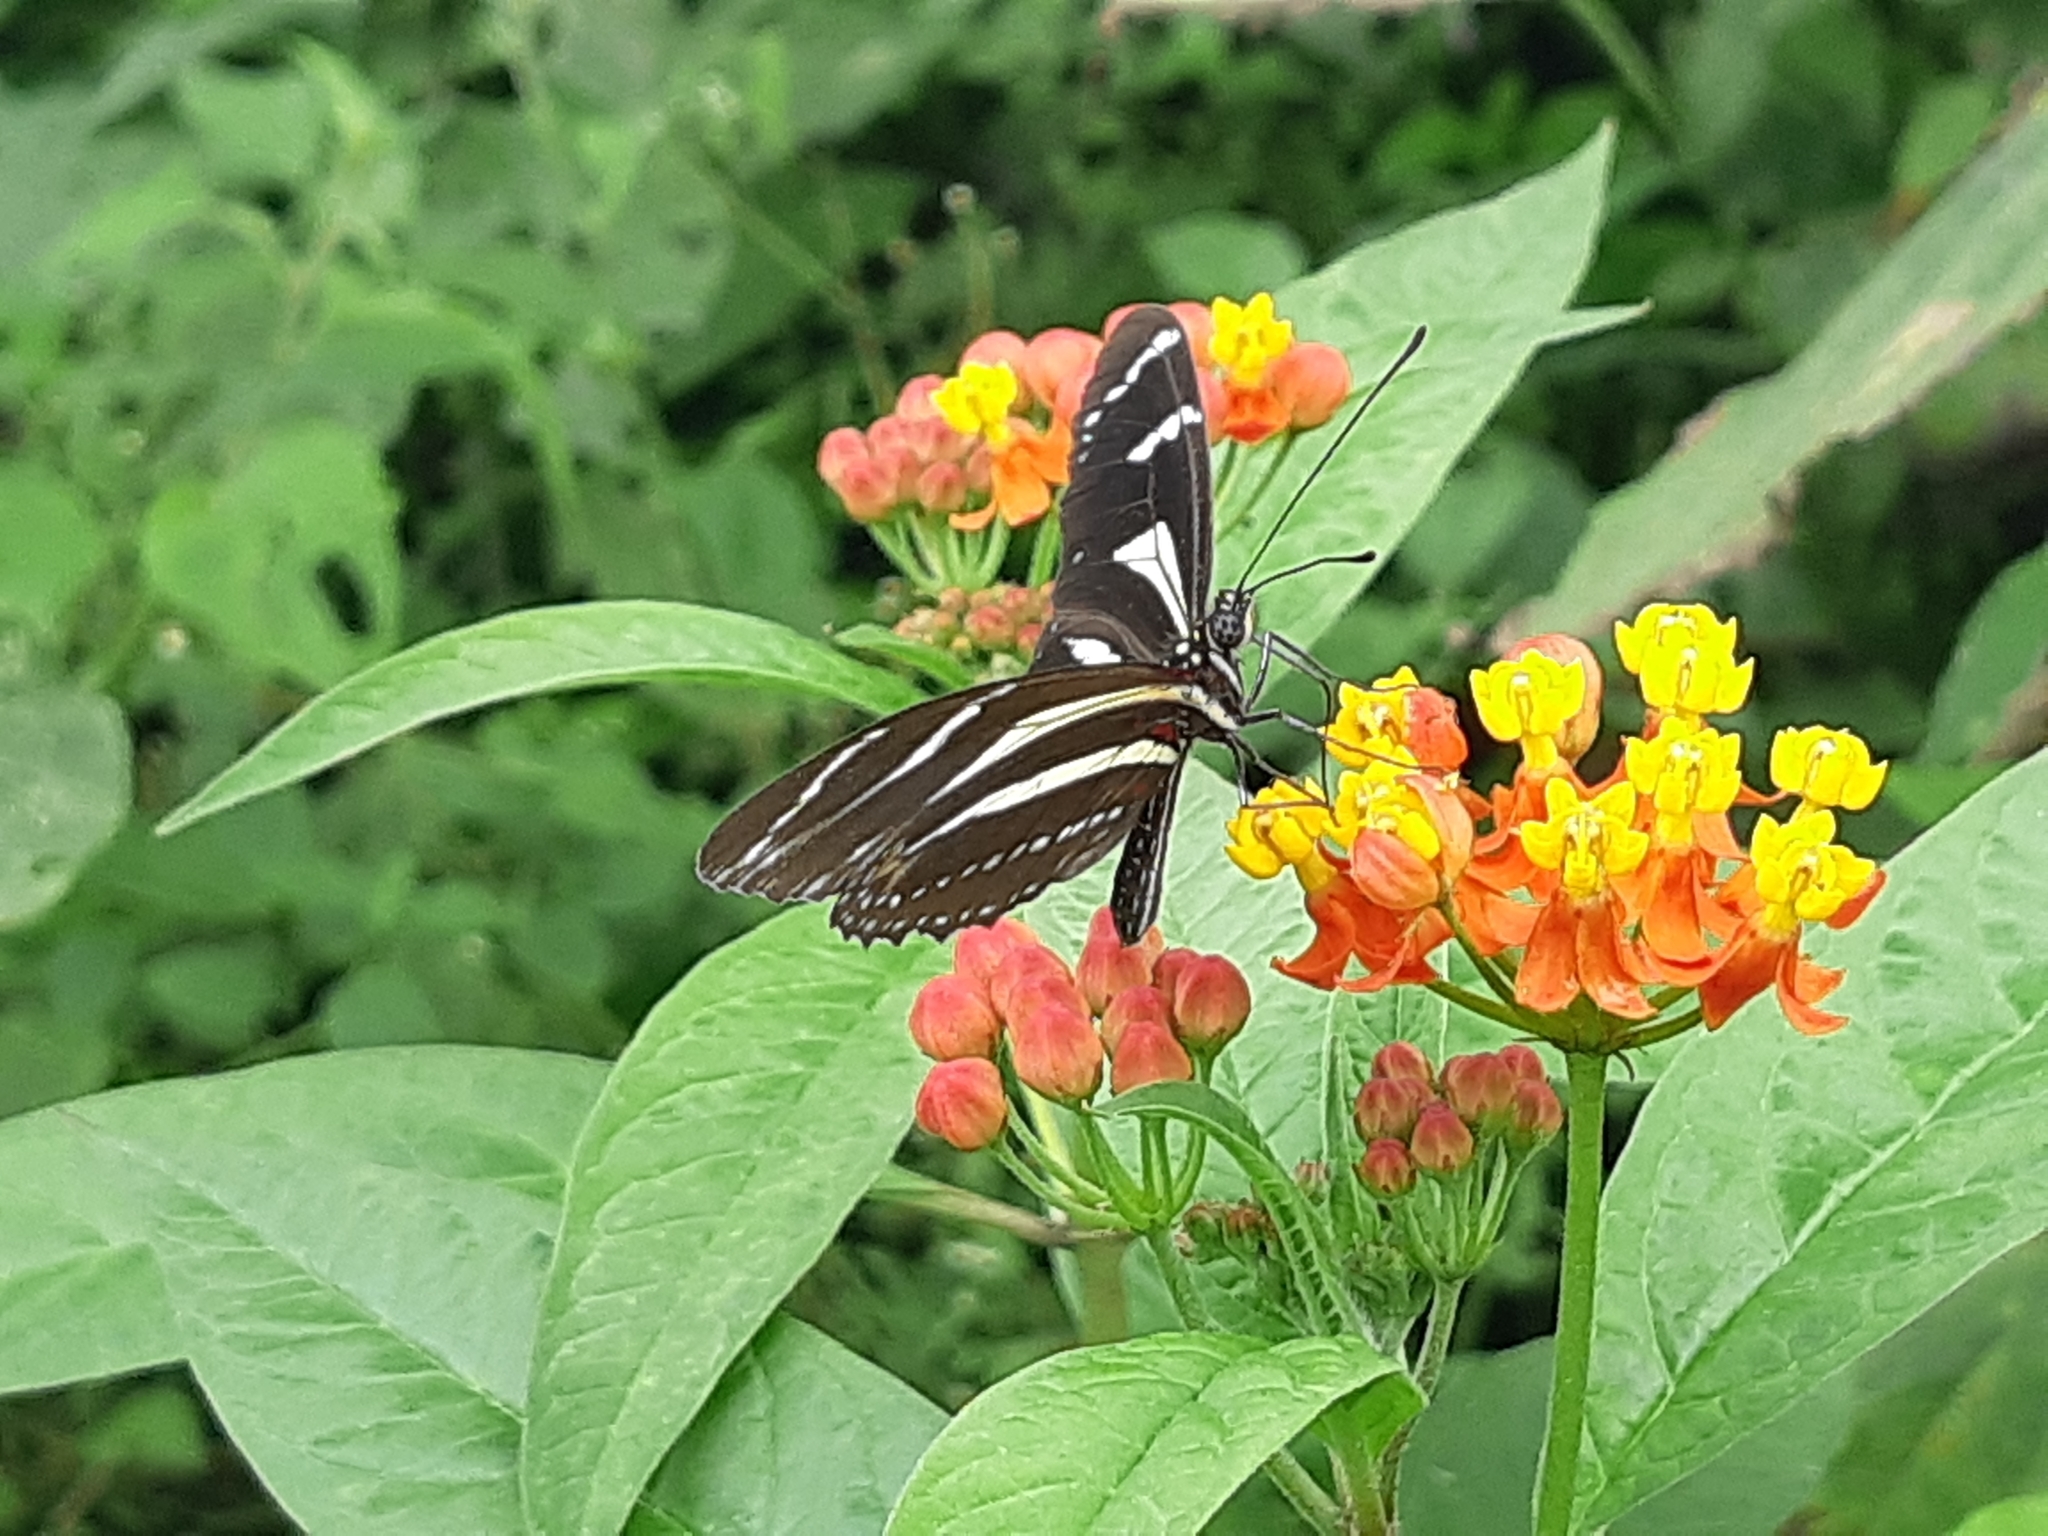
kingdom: Animalia
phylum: Arthropoda
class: Insecta
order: Lepidoptera
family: Nymphalidae
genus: Heliconius
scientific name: Heliconius peruvianus
